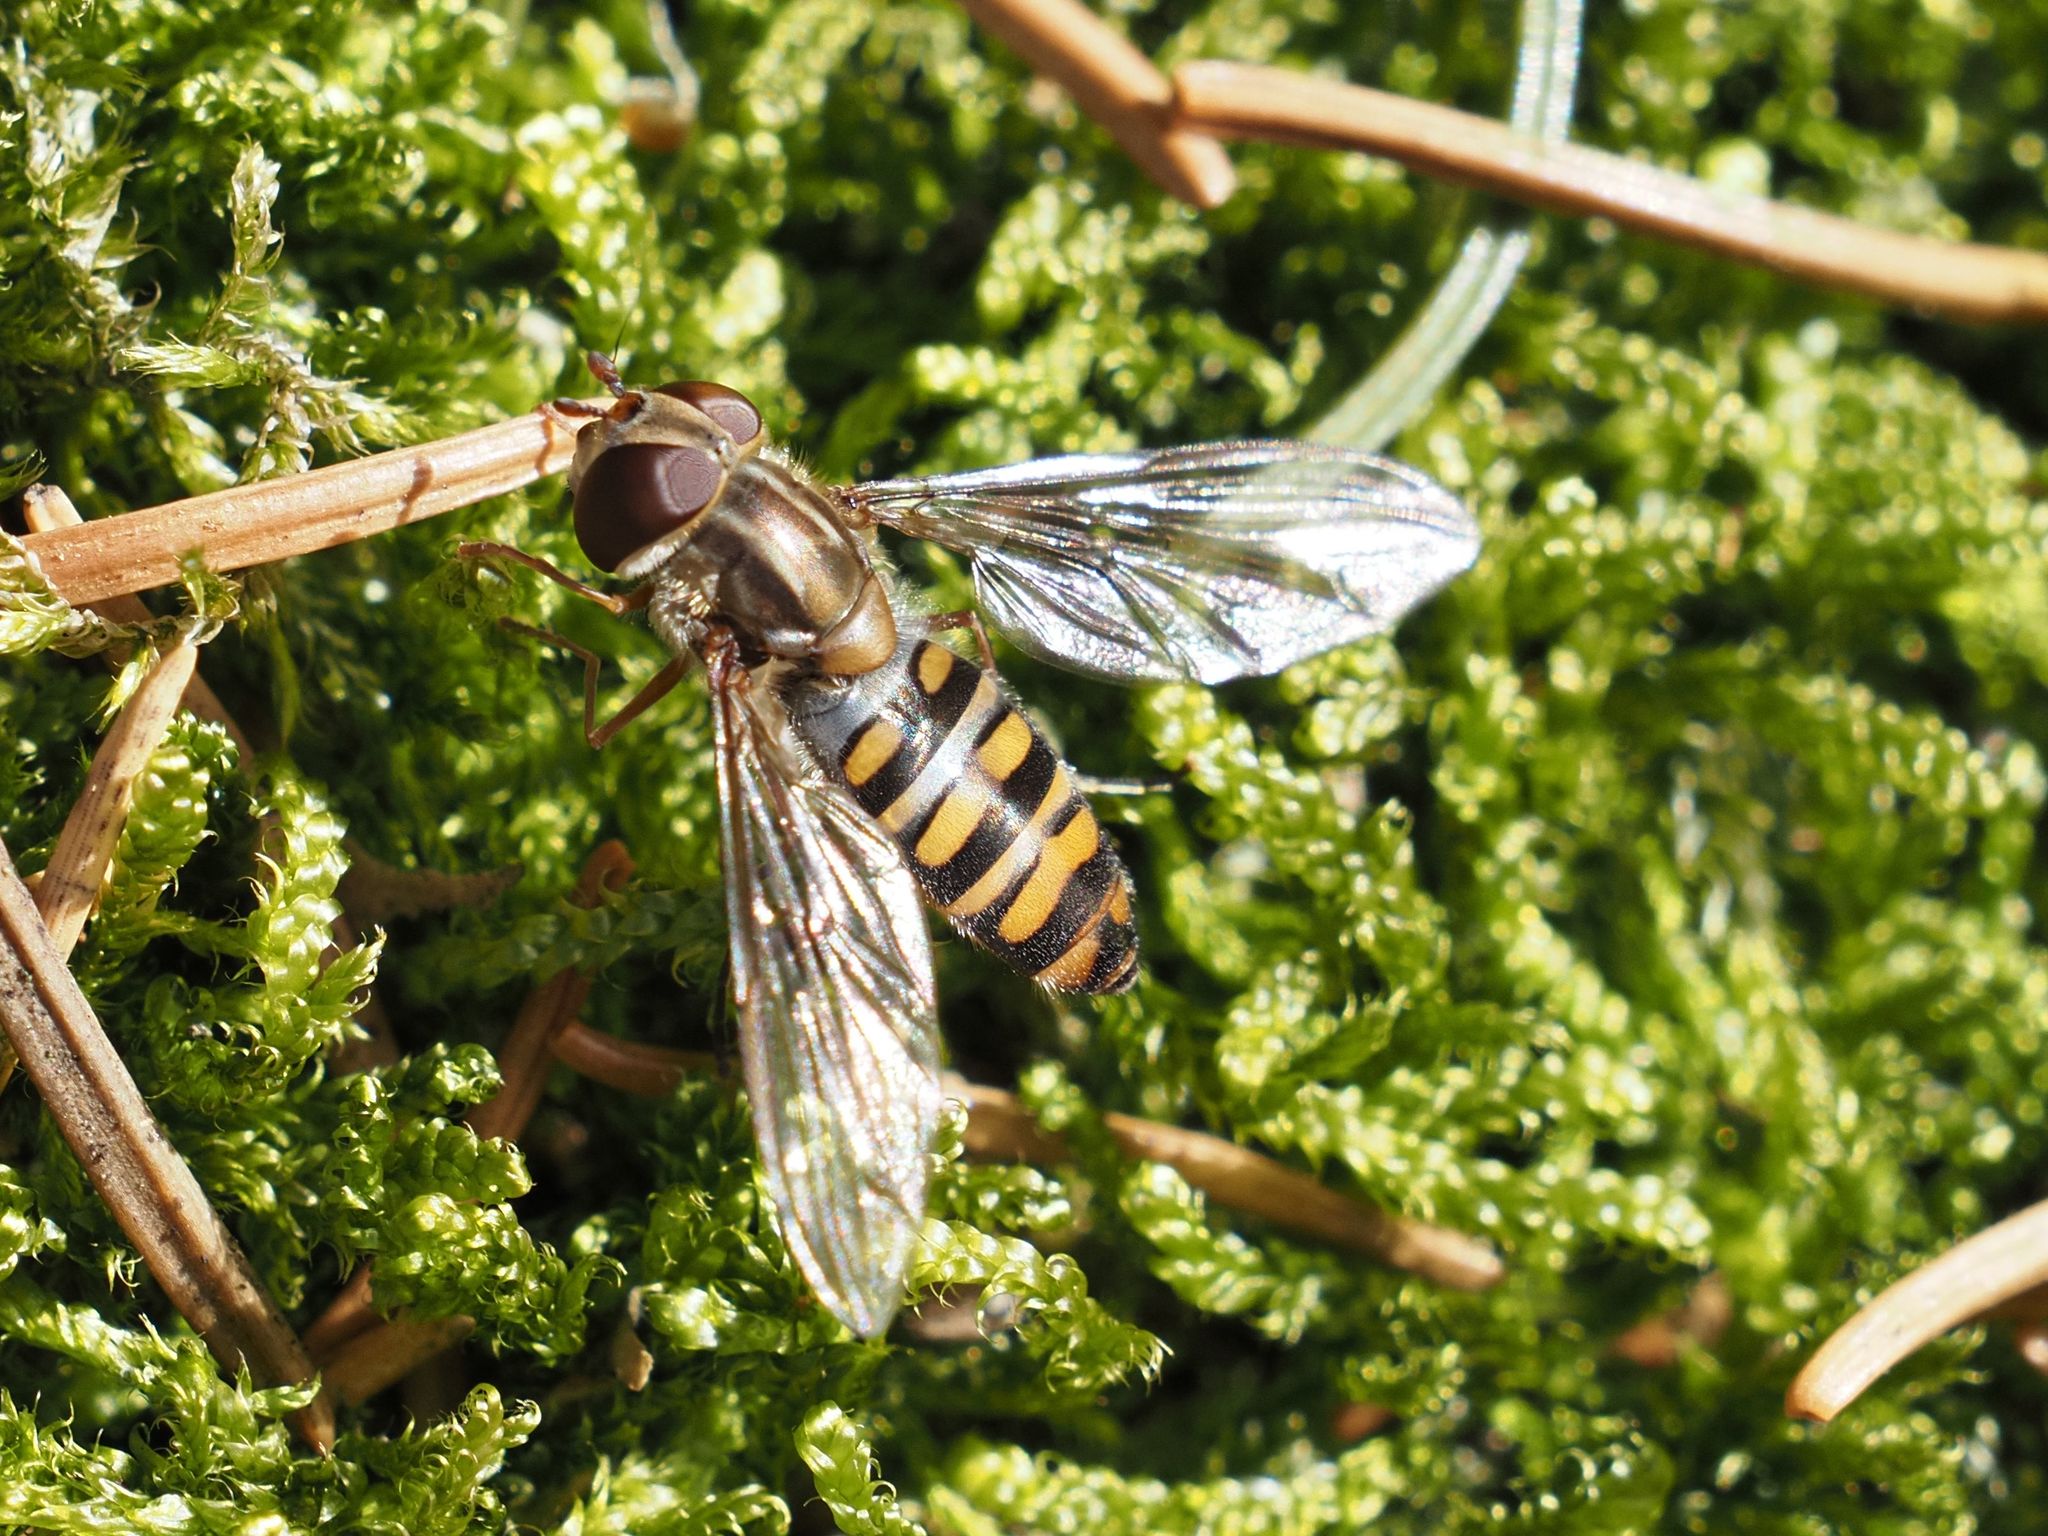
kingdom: Animalia
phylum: Arthropoda
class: Insecta
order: Diptera
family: Syrphidae
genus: Episyrphus
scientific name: Episyrphus balteatus
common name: Marmalade hoverfly
